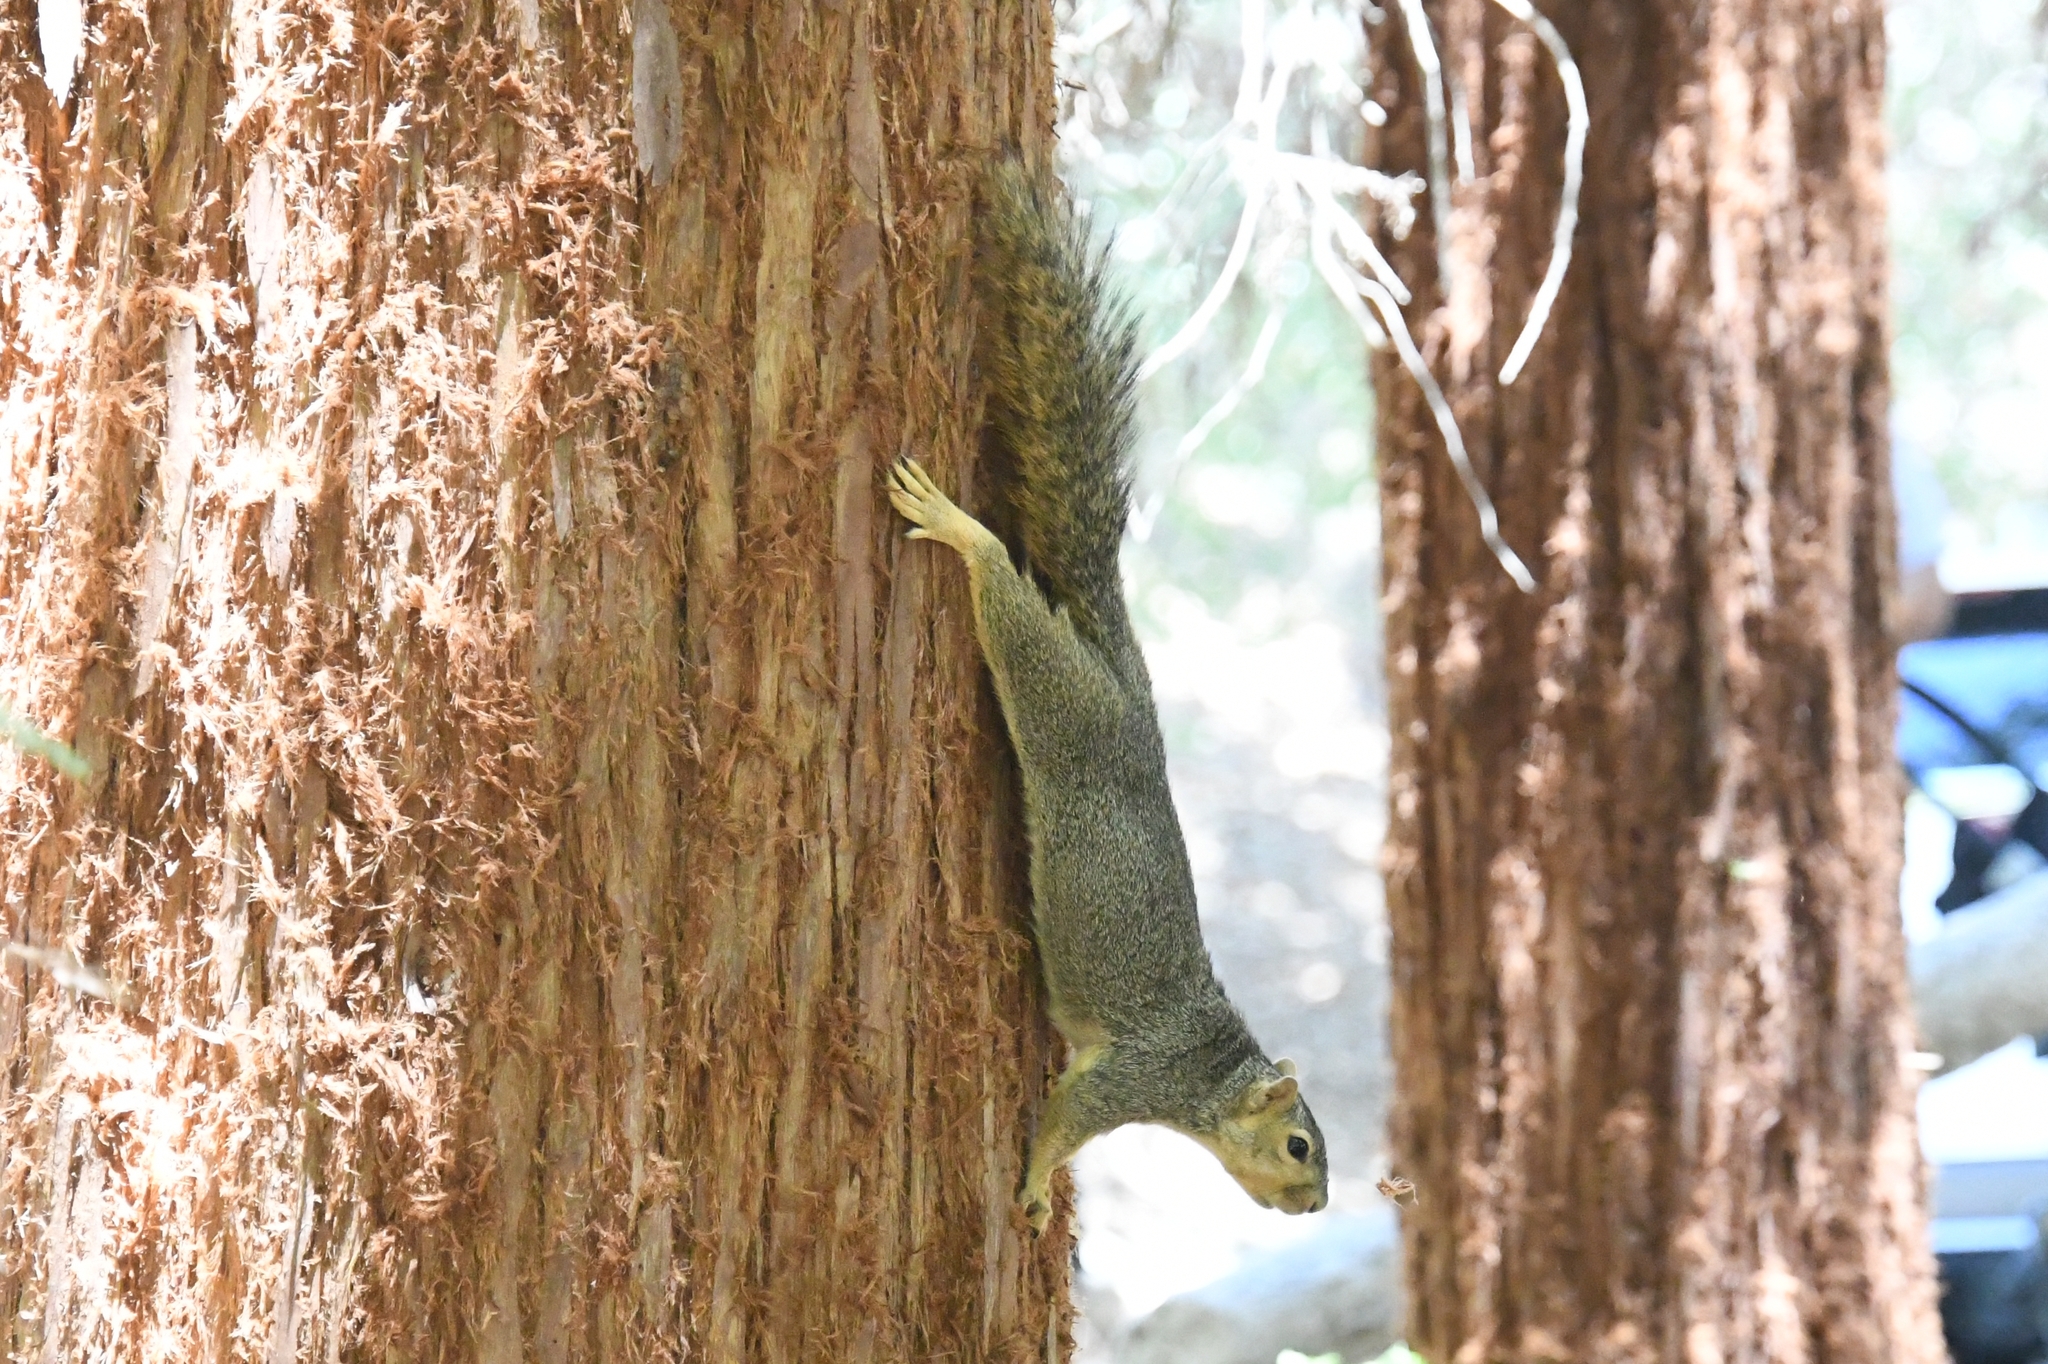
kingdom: Animalia
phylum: Chordata
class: Mammalia
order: Rodentia
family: Sciuridae
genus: Sciurus
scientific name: Sciurus niger
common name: Fox squirrel
